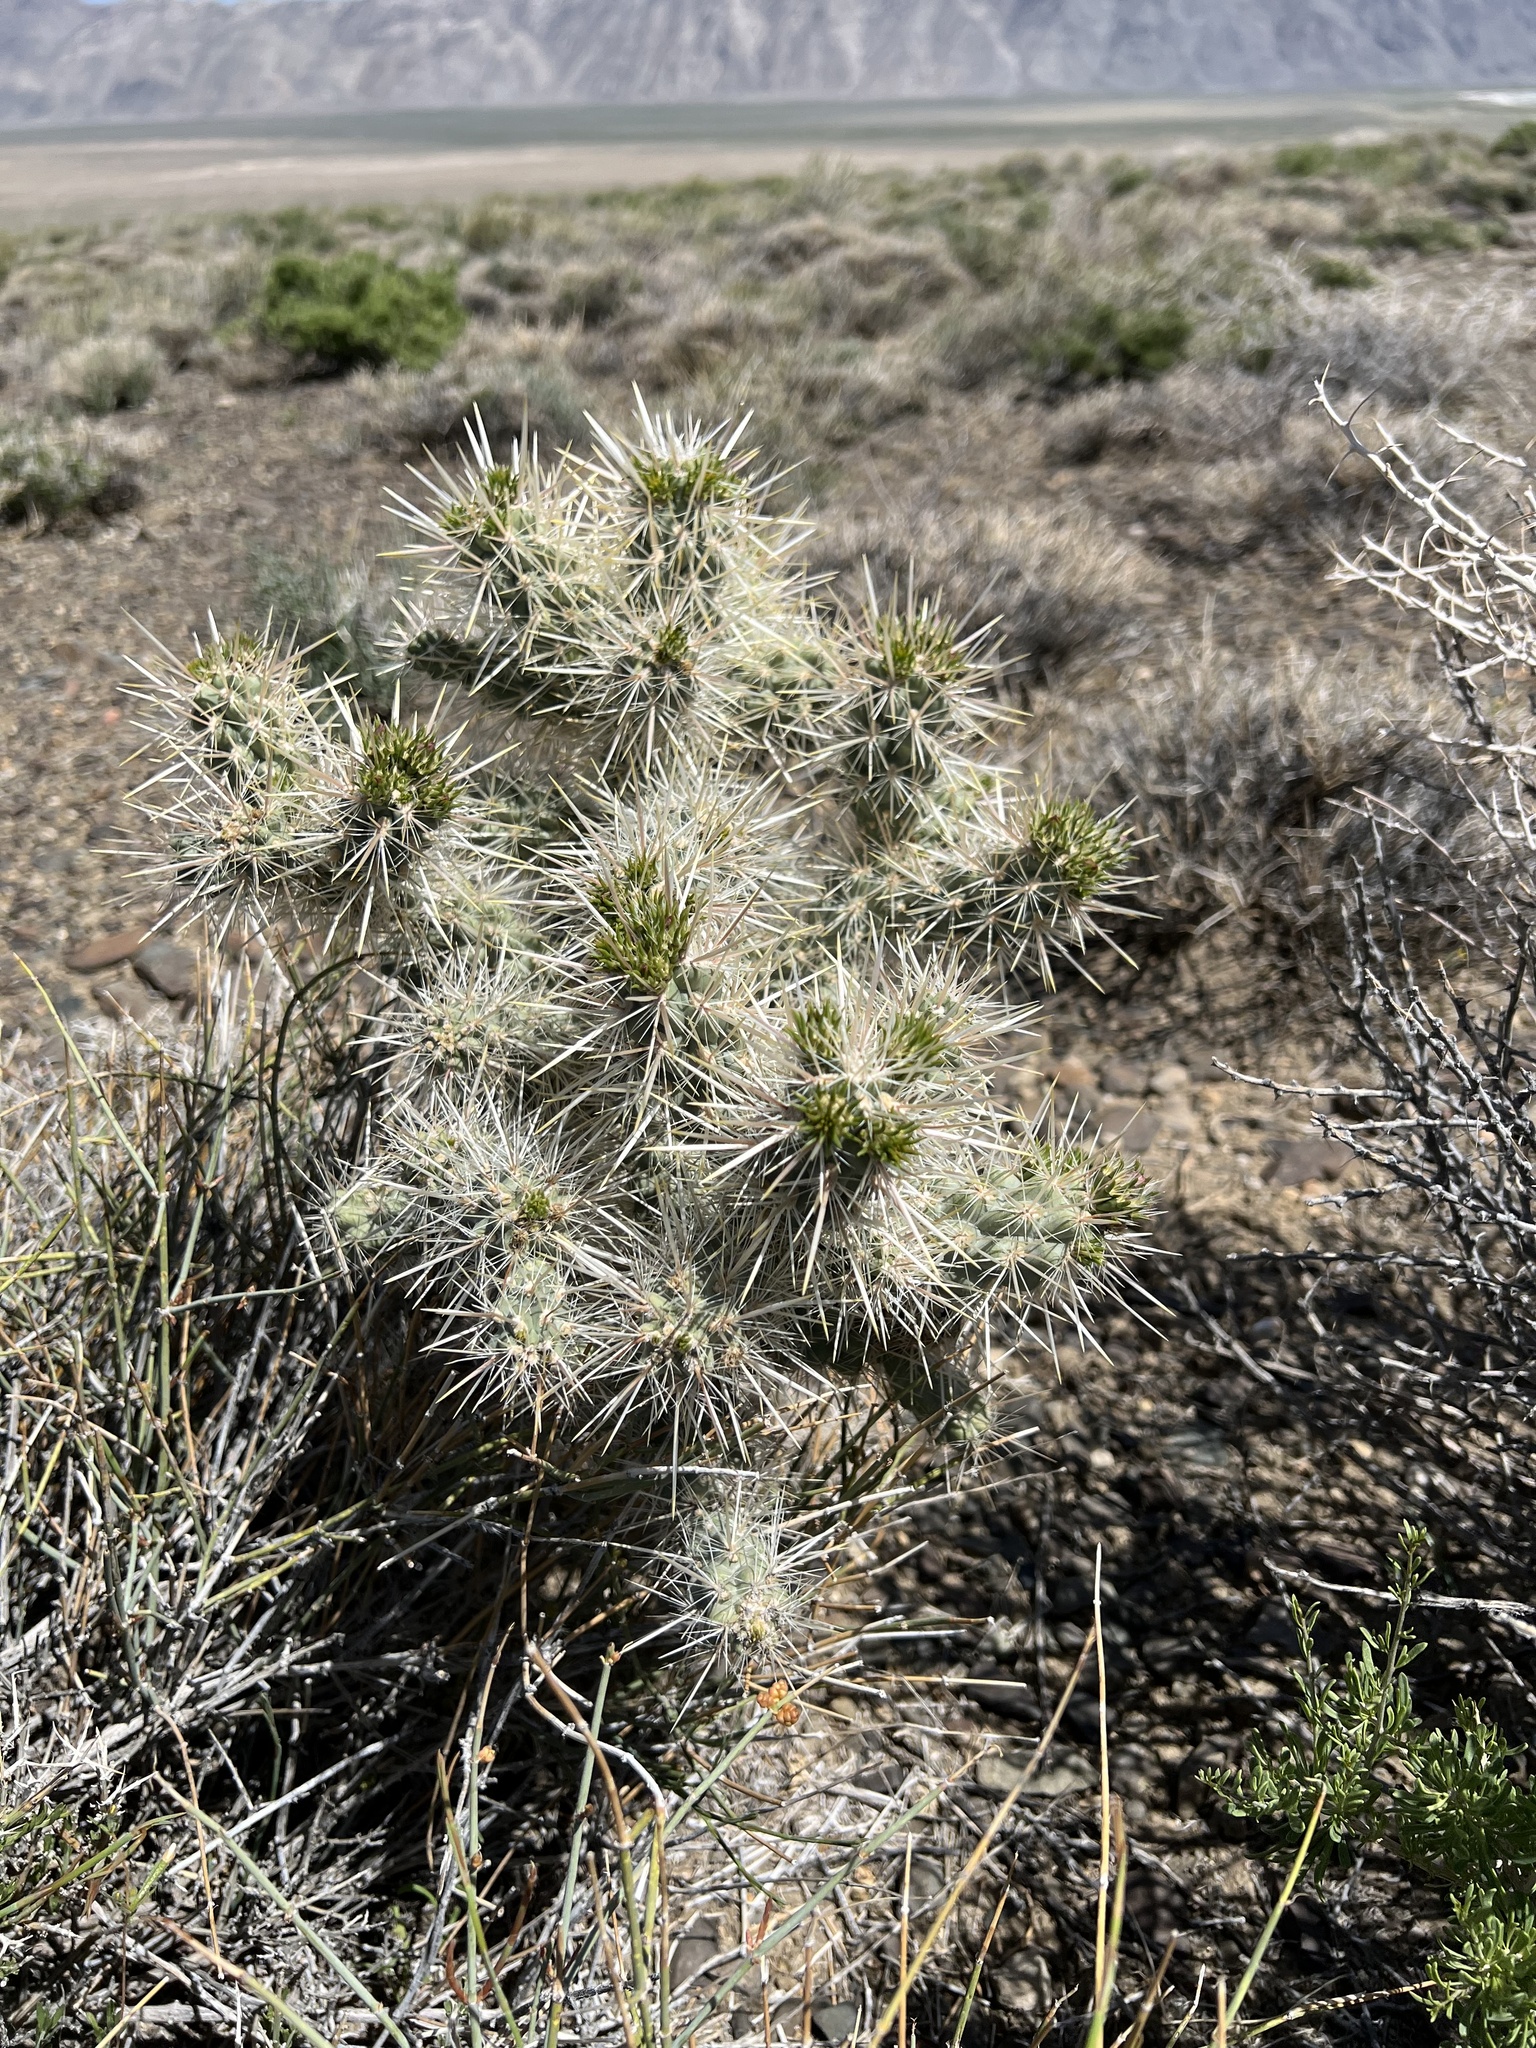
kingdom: Plantae
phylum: Tracheophyta
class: Magnoliopsida
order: Caryophyllales
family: Cactaceae
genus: Cylindropuntia
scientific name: Cylindropuntia echinocarpa
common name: Ground cholla
